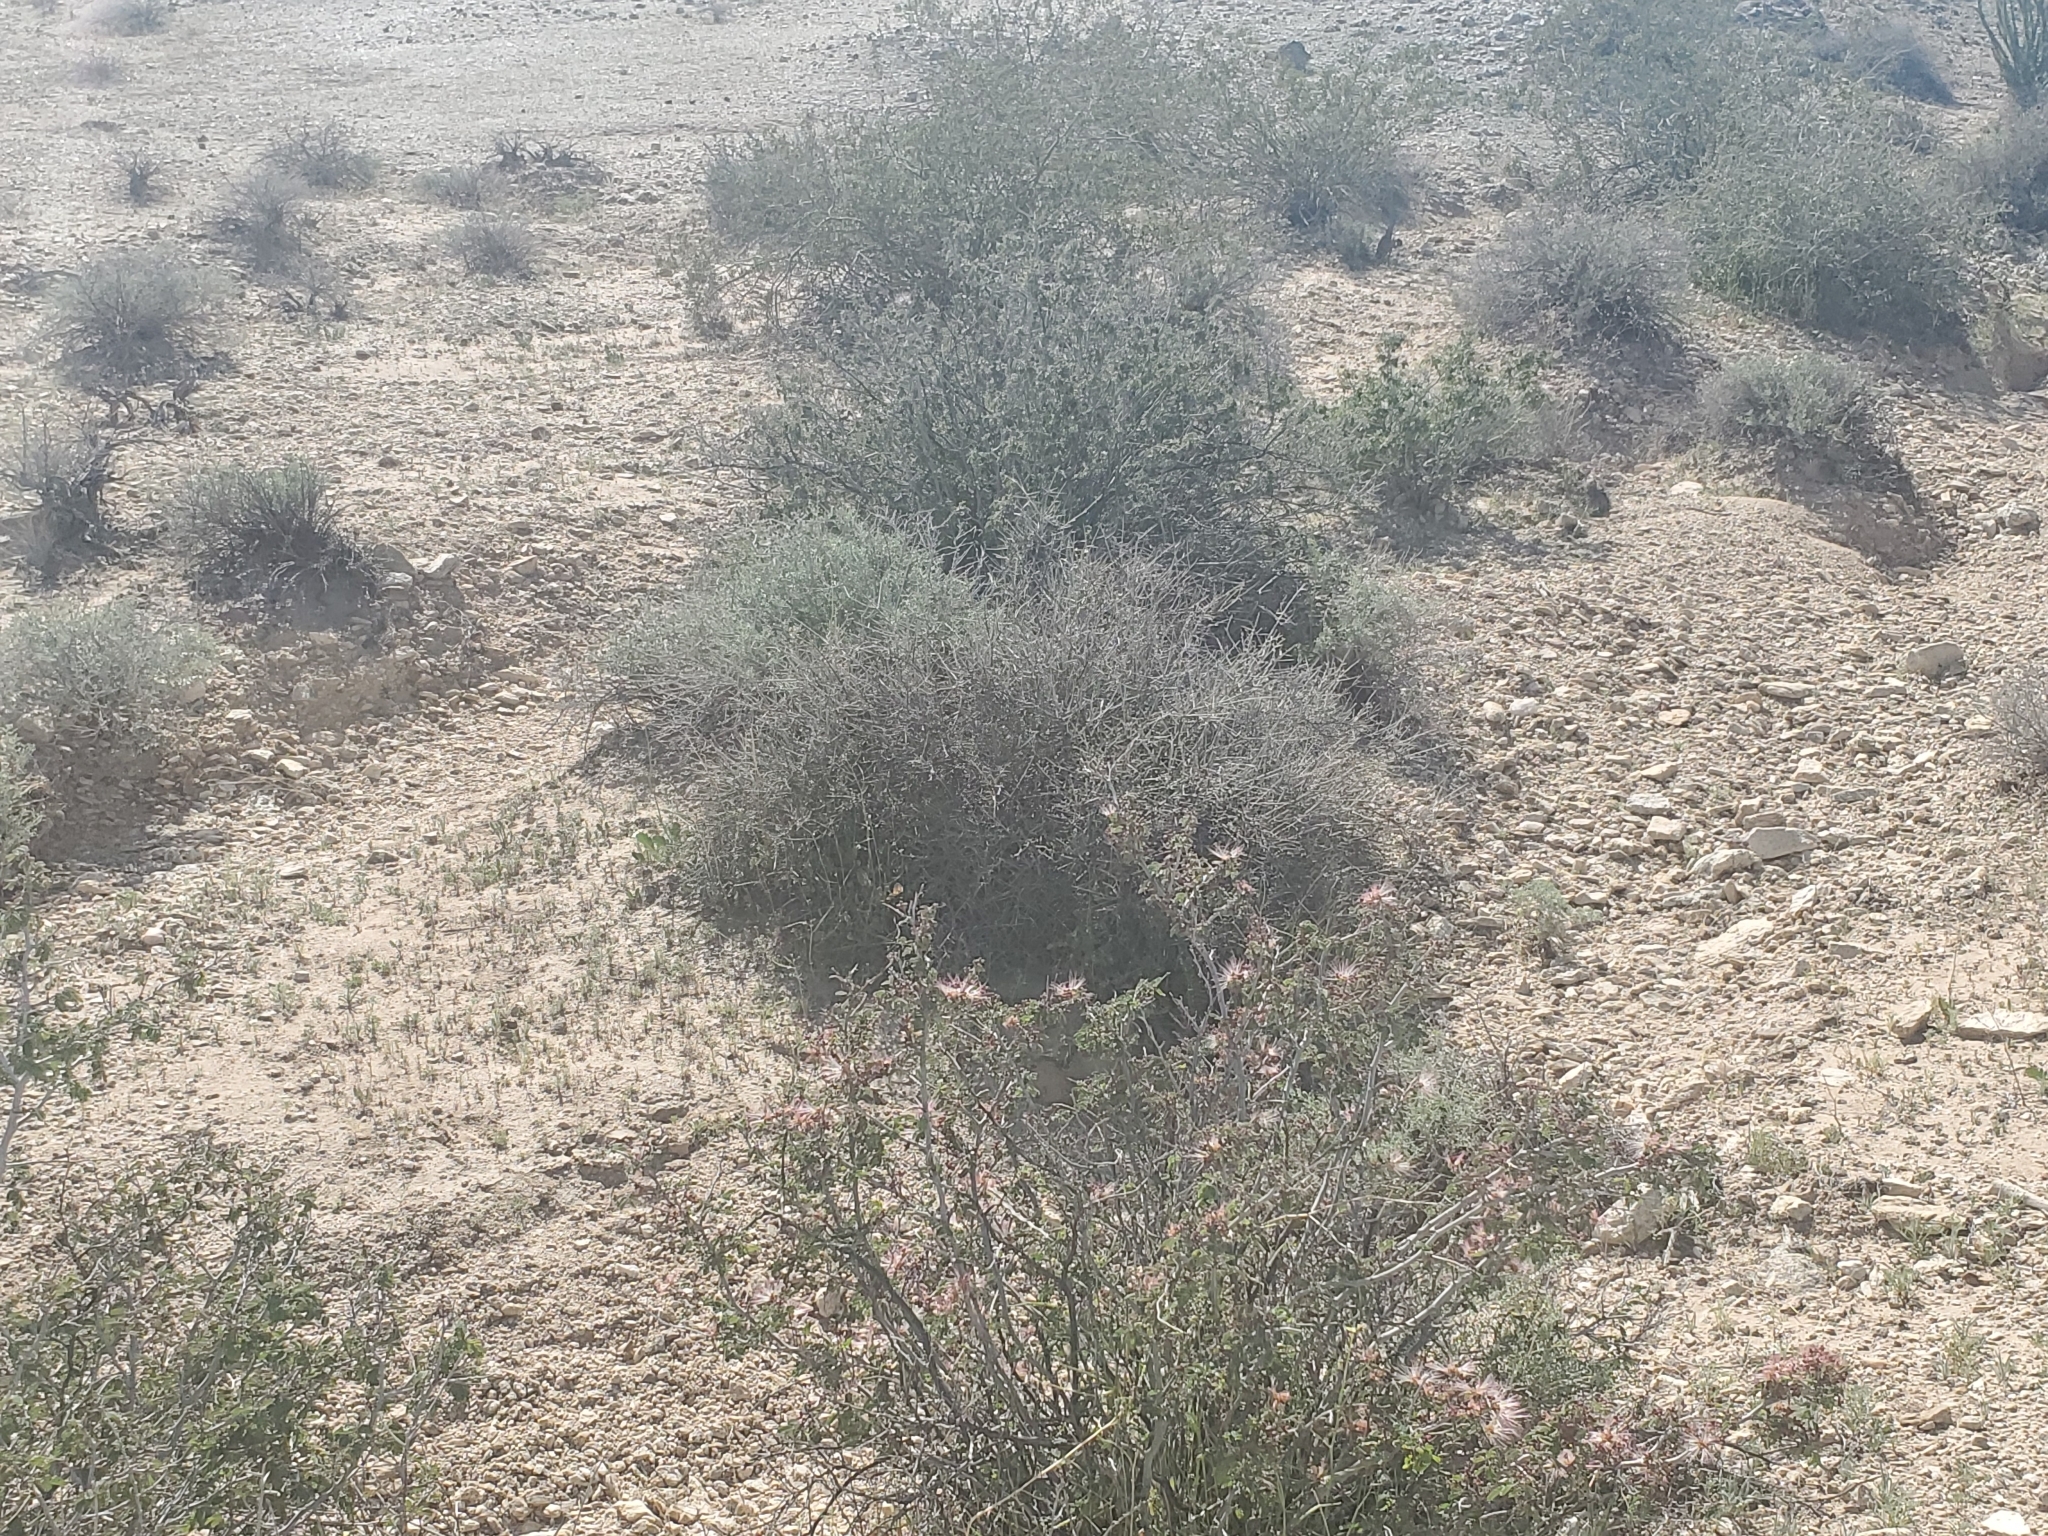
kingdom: Plantae
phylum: Tracheophyta
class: Magnoliopsida
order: Fabales
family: Fabaceae
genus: Calliandra
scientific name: Calliandra eriophylla
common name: Fairy-duster
